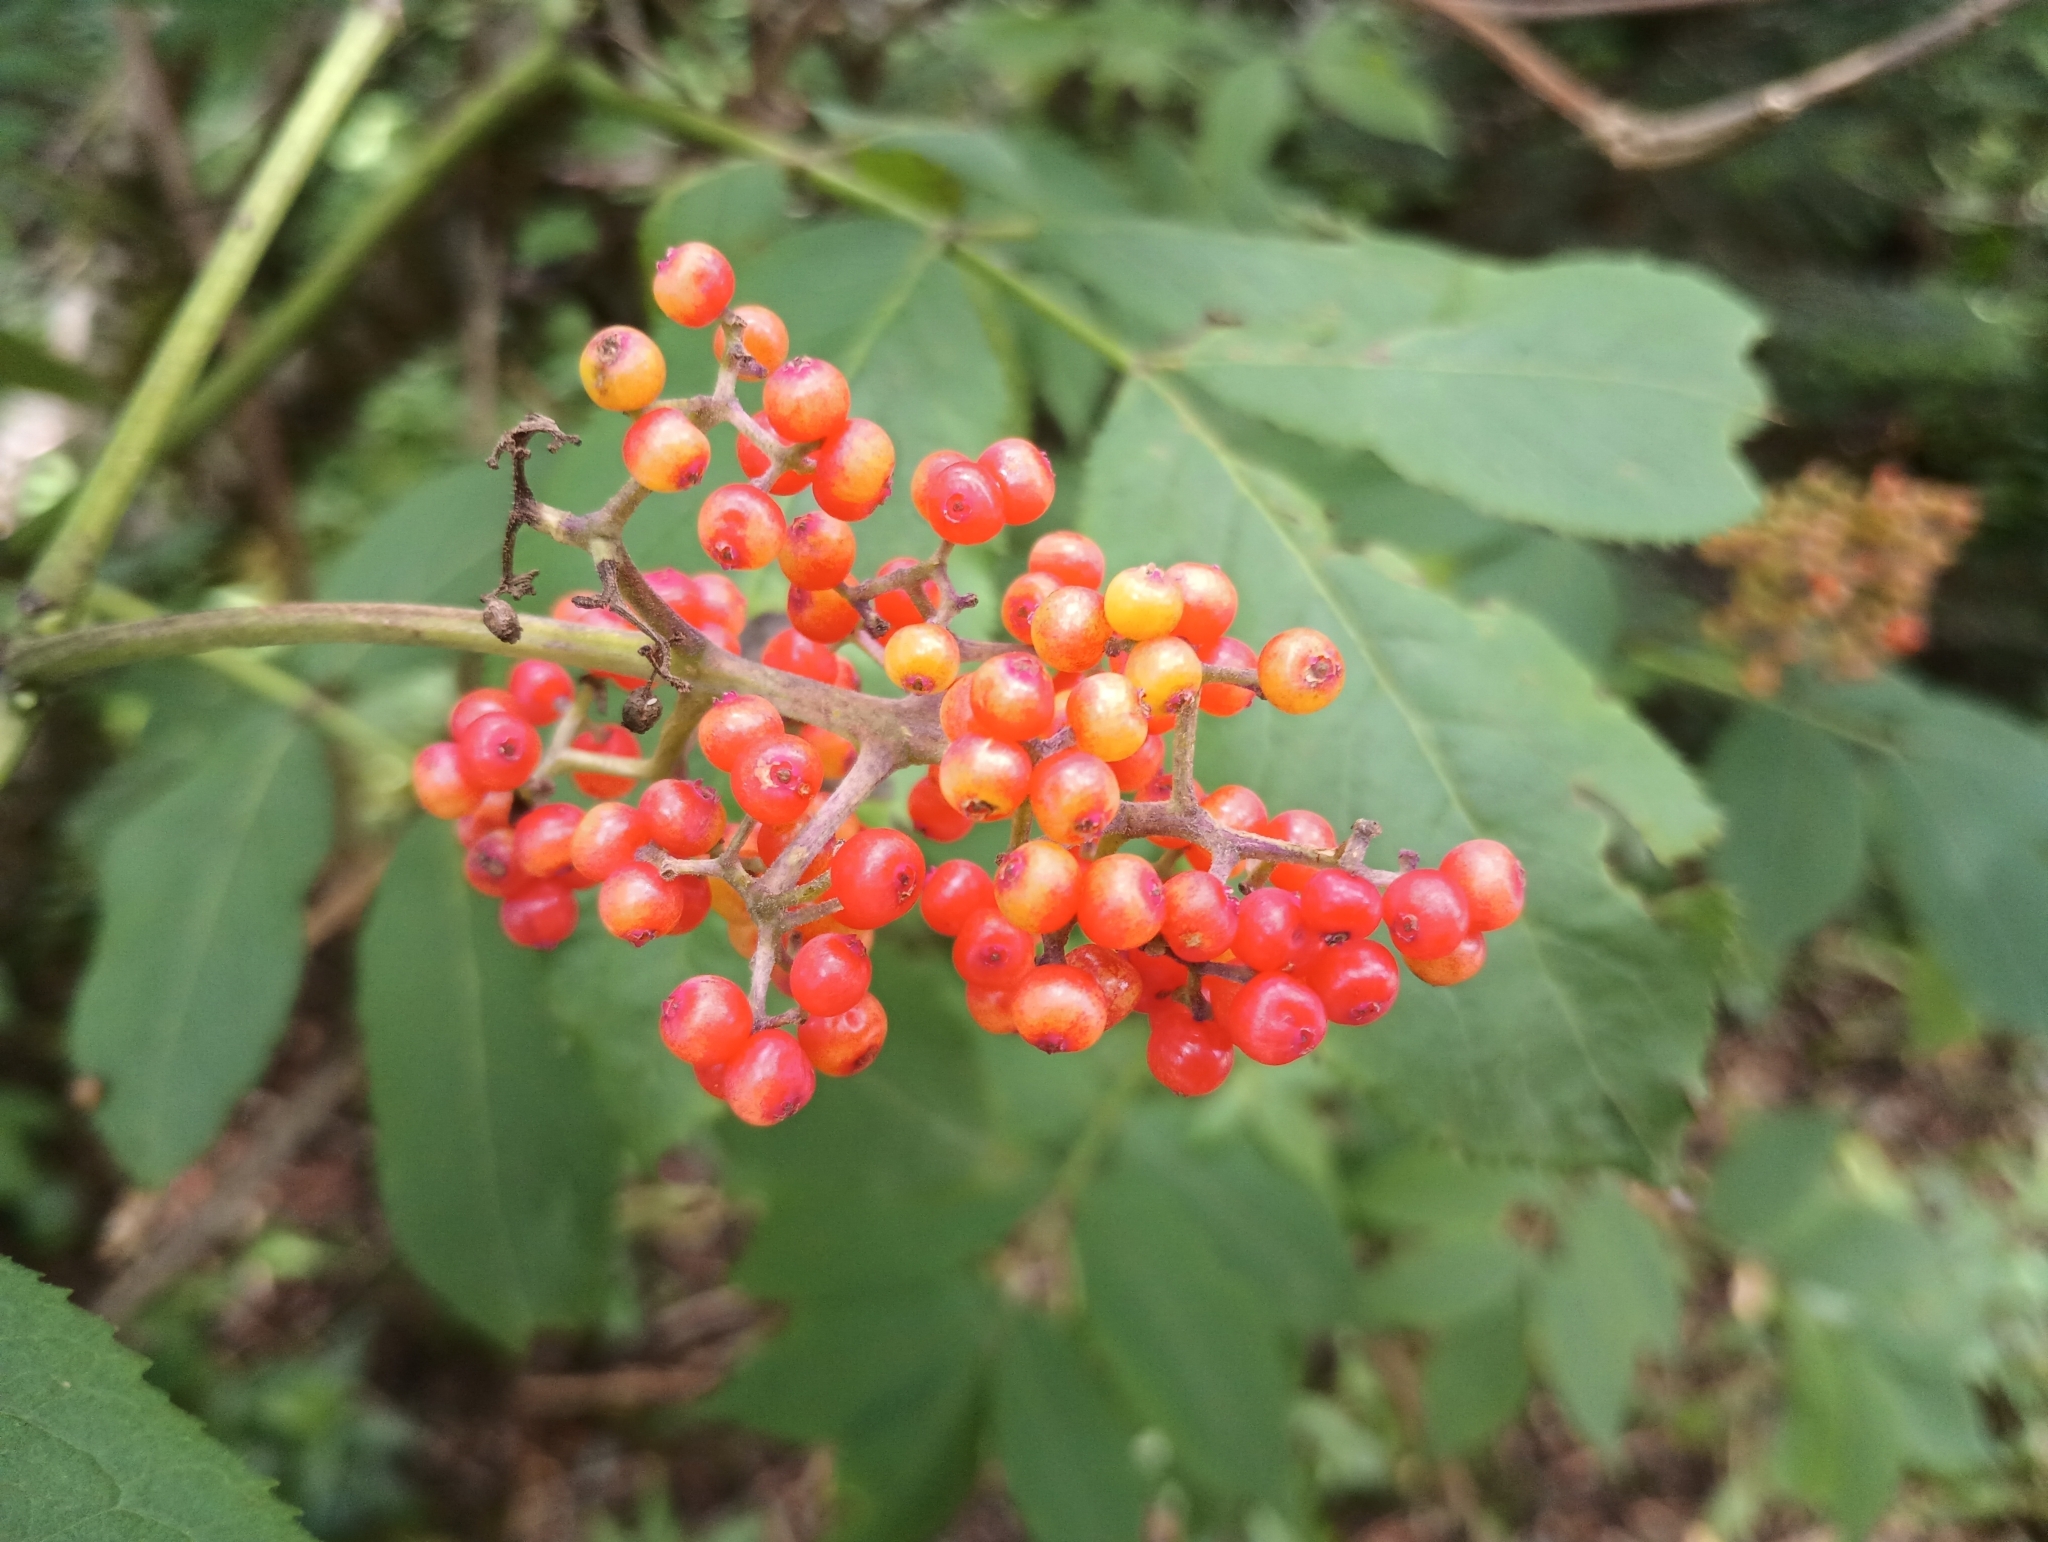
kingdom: Plantae
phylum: Tracheophyta
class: Magnoliopsida
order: Dipsacales
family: Viburnaceae
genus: Sambucus
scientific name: Sambucus racemosa
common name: Red-berried elder
